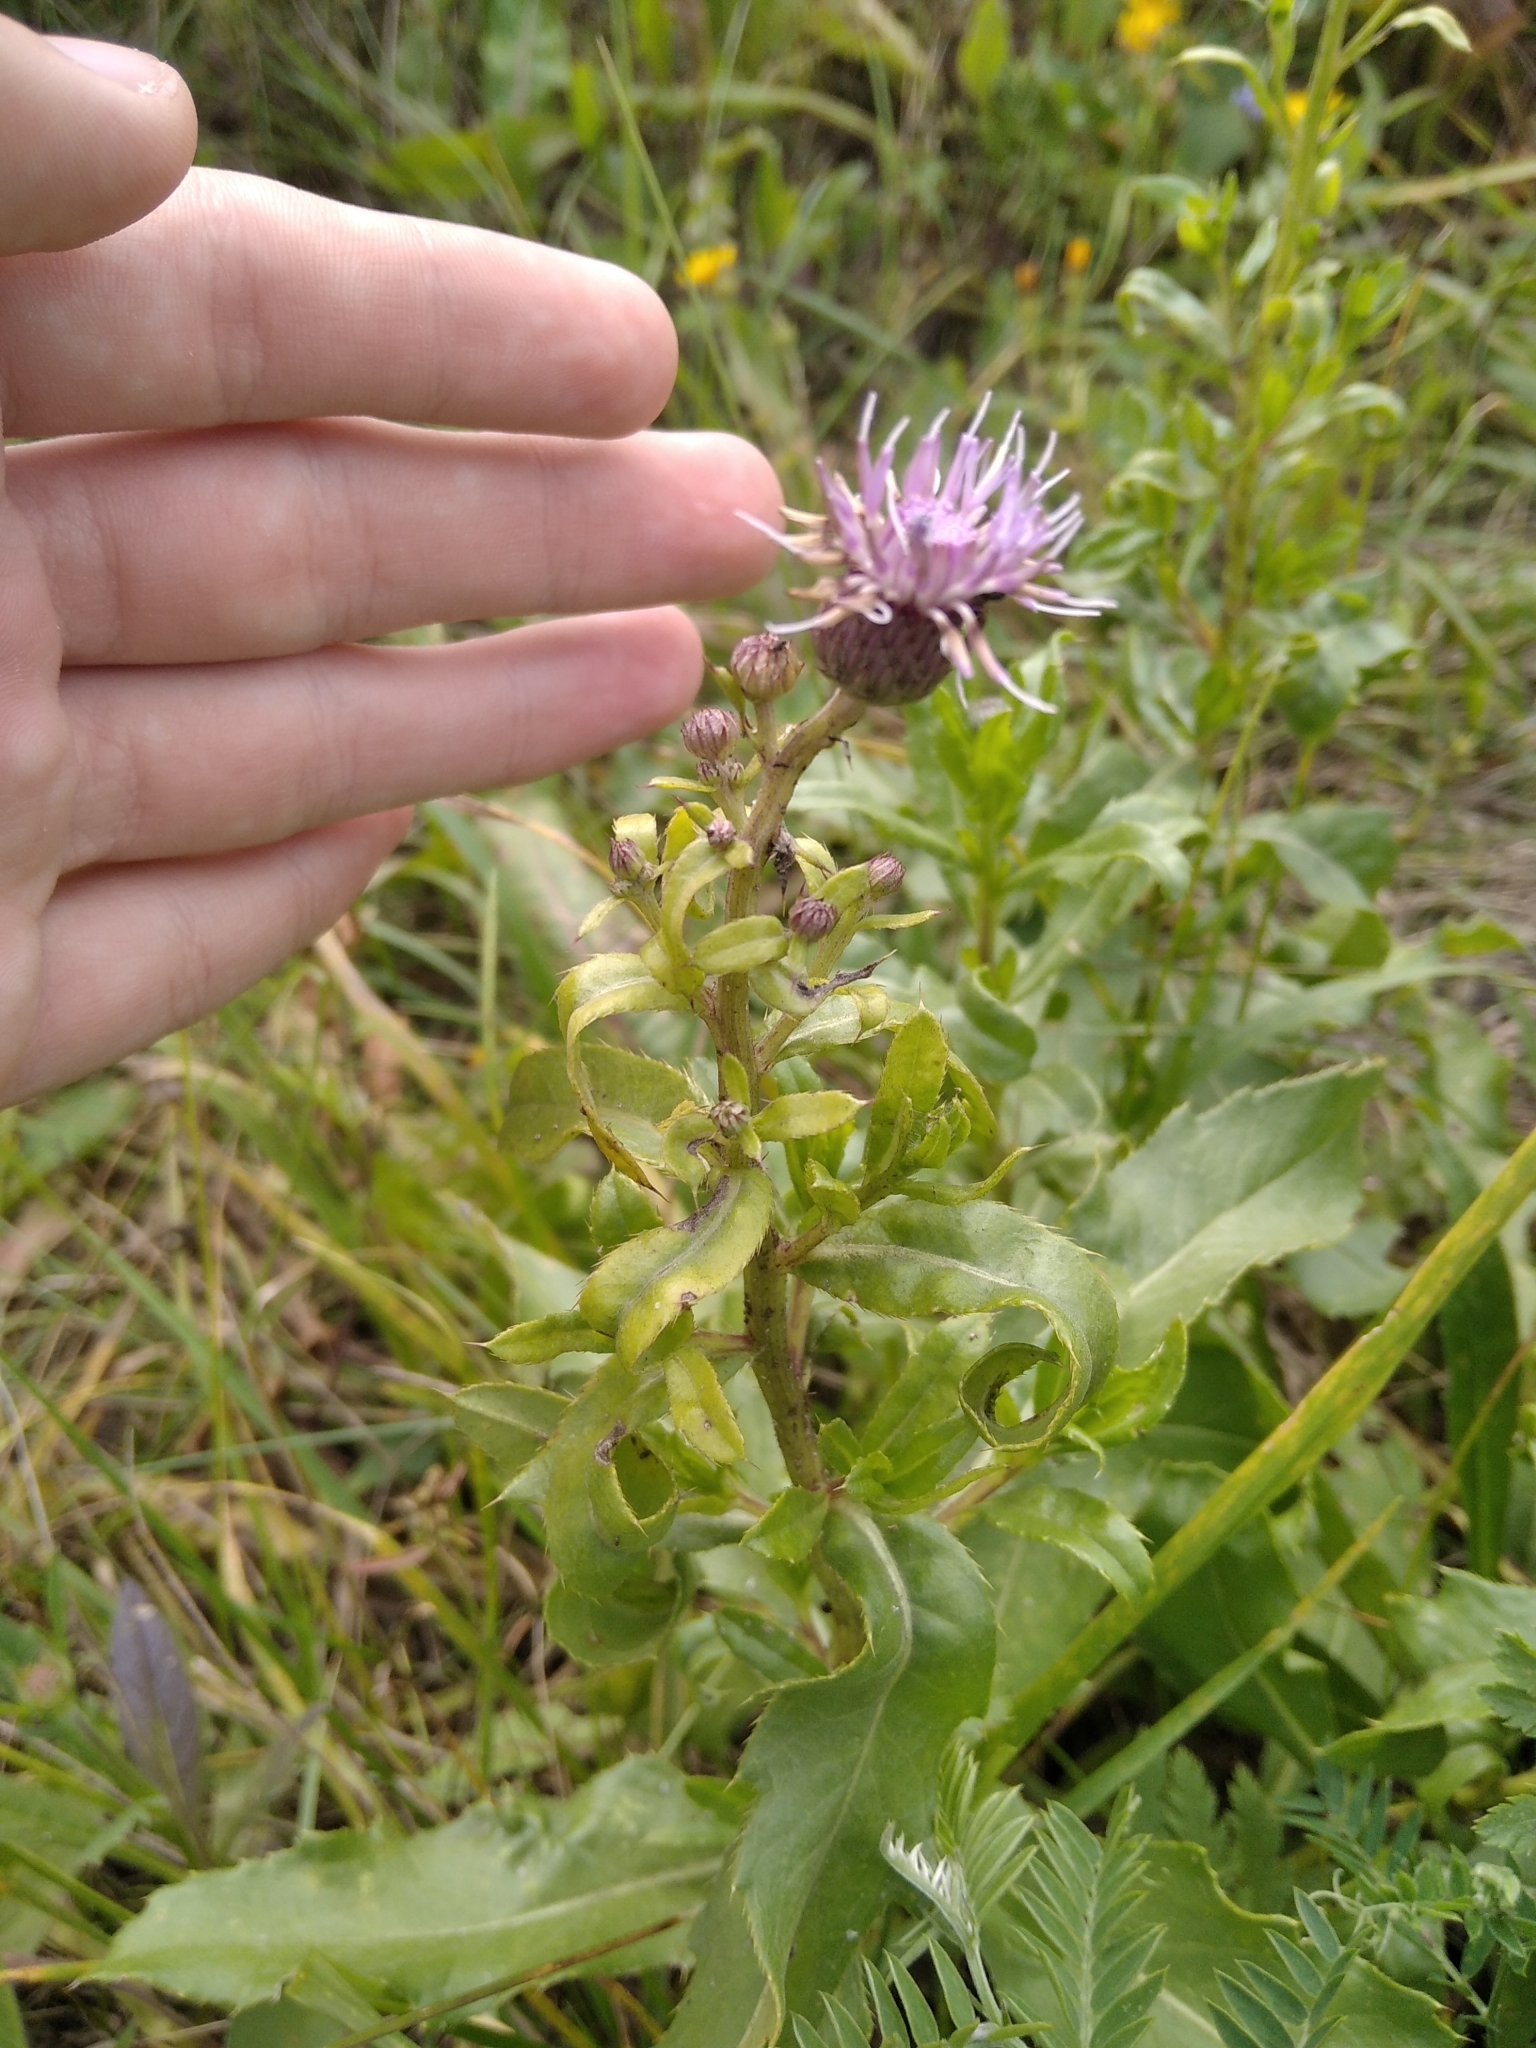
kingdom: Plantae
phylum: Tracheophyta
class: Magnoliopsida
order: Asterales
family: Asteraceae
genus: Cirsium
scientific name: Cirsium arvense
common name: Creeping thistle
